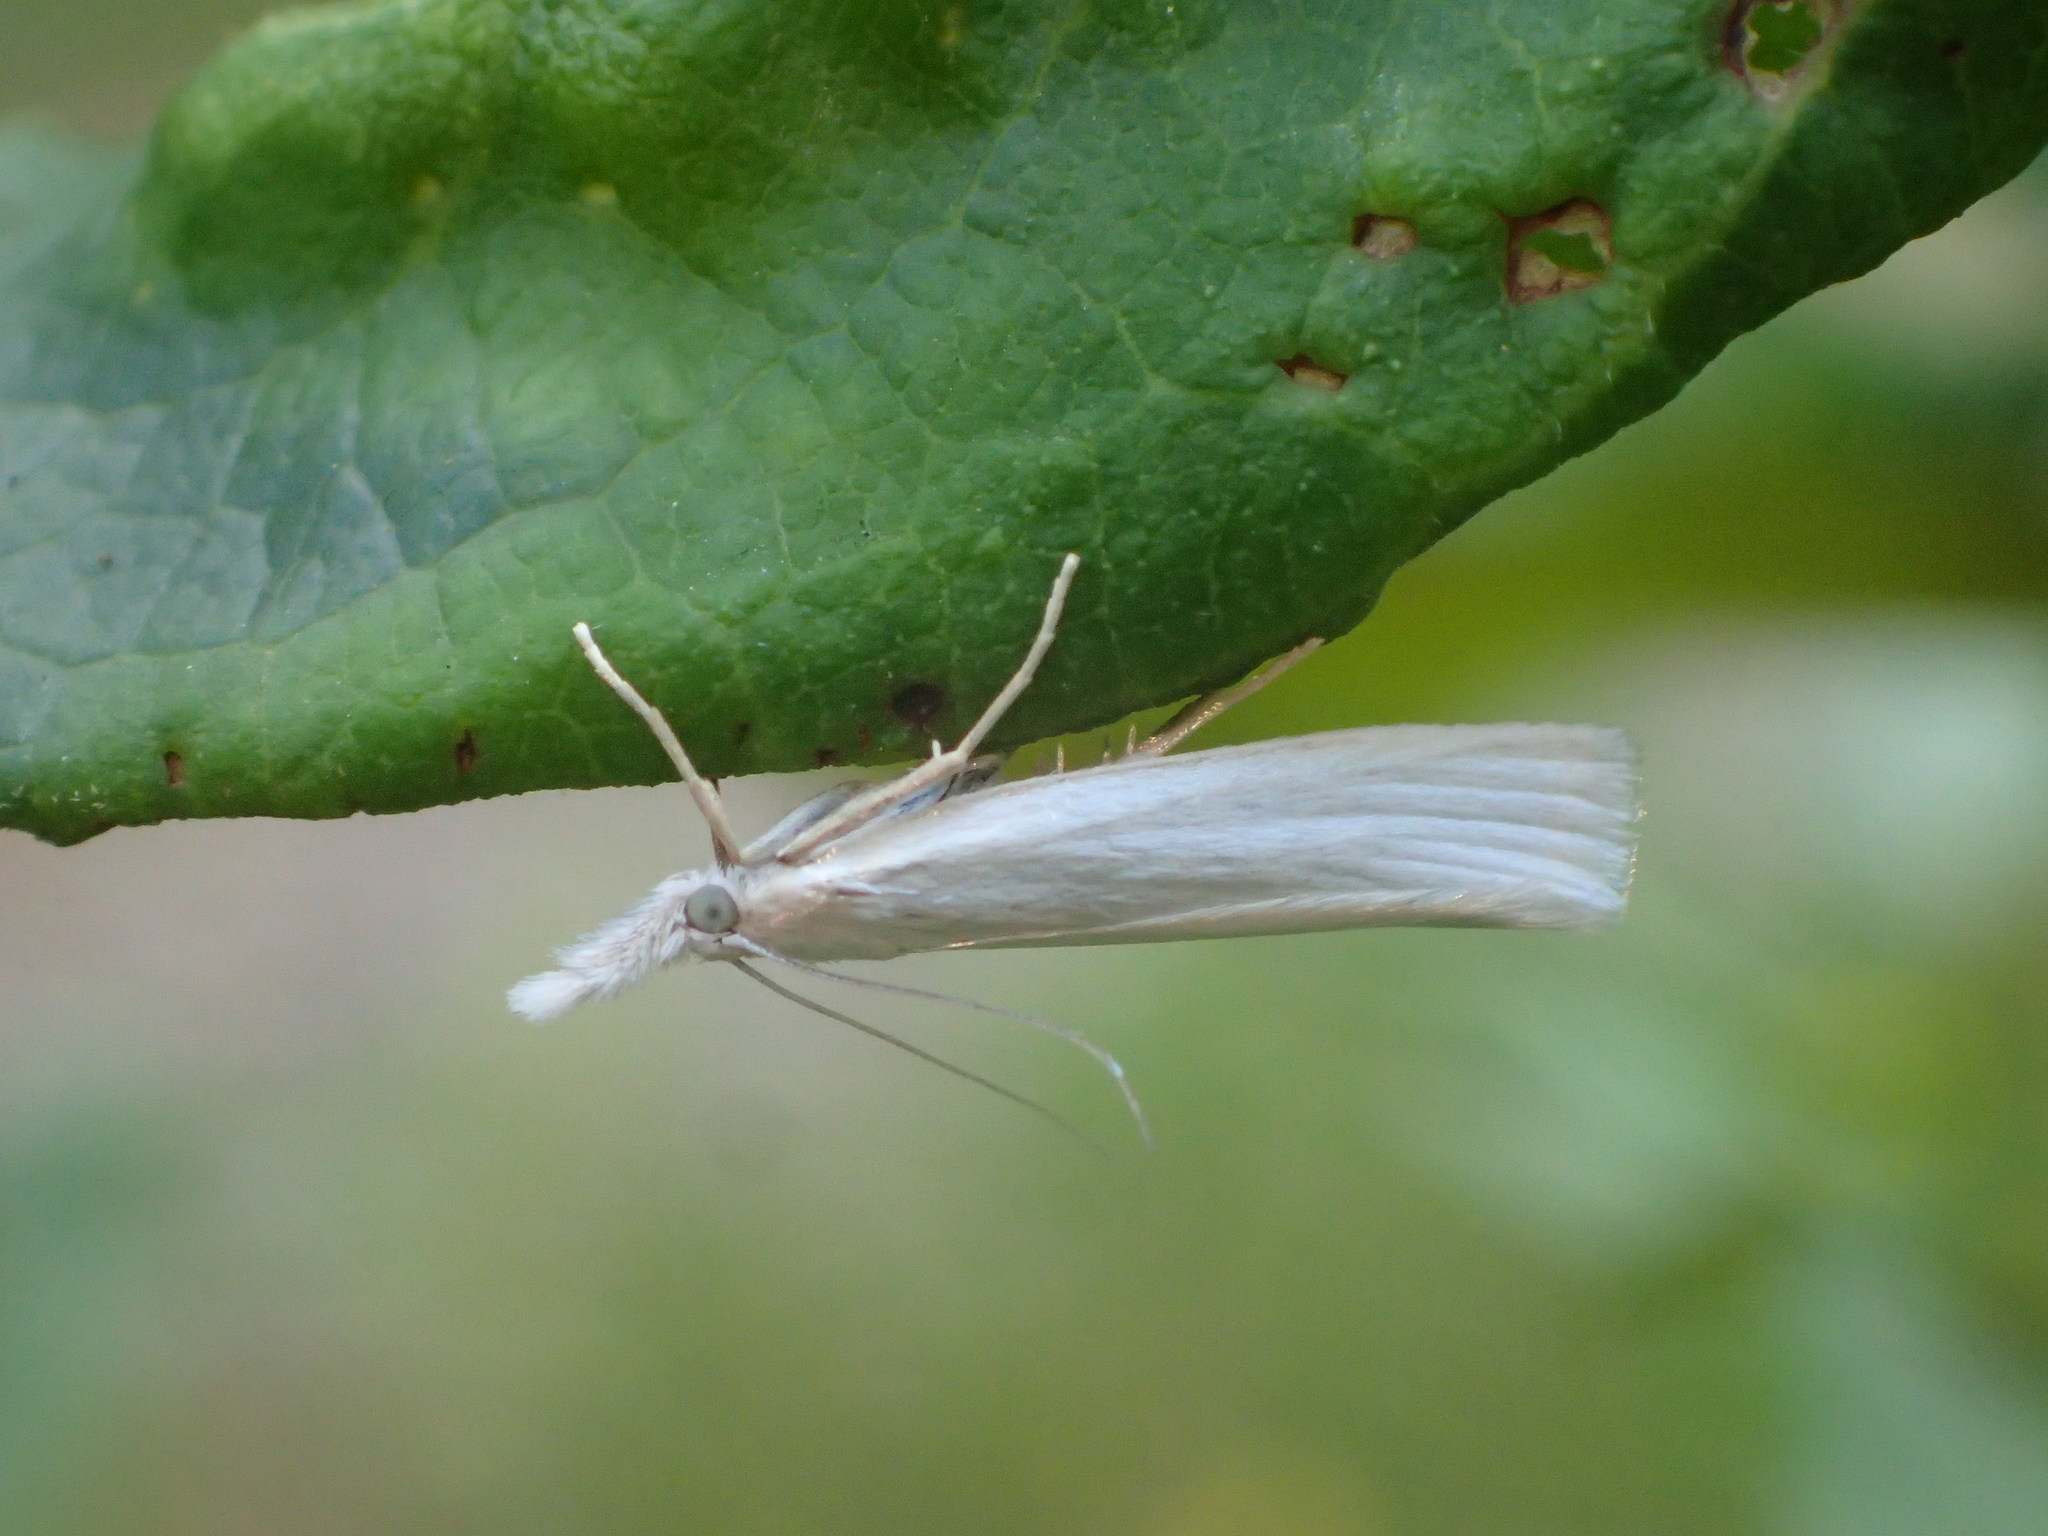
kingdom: Animalia
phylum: Arthropoda
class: Insecta
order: Lepidoptera
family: Crambidae
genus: Crambus
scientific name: Crambus perlellus
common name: Yellow satin veneer
